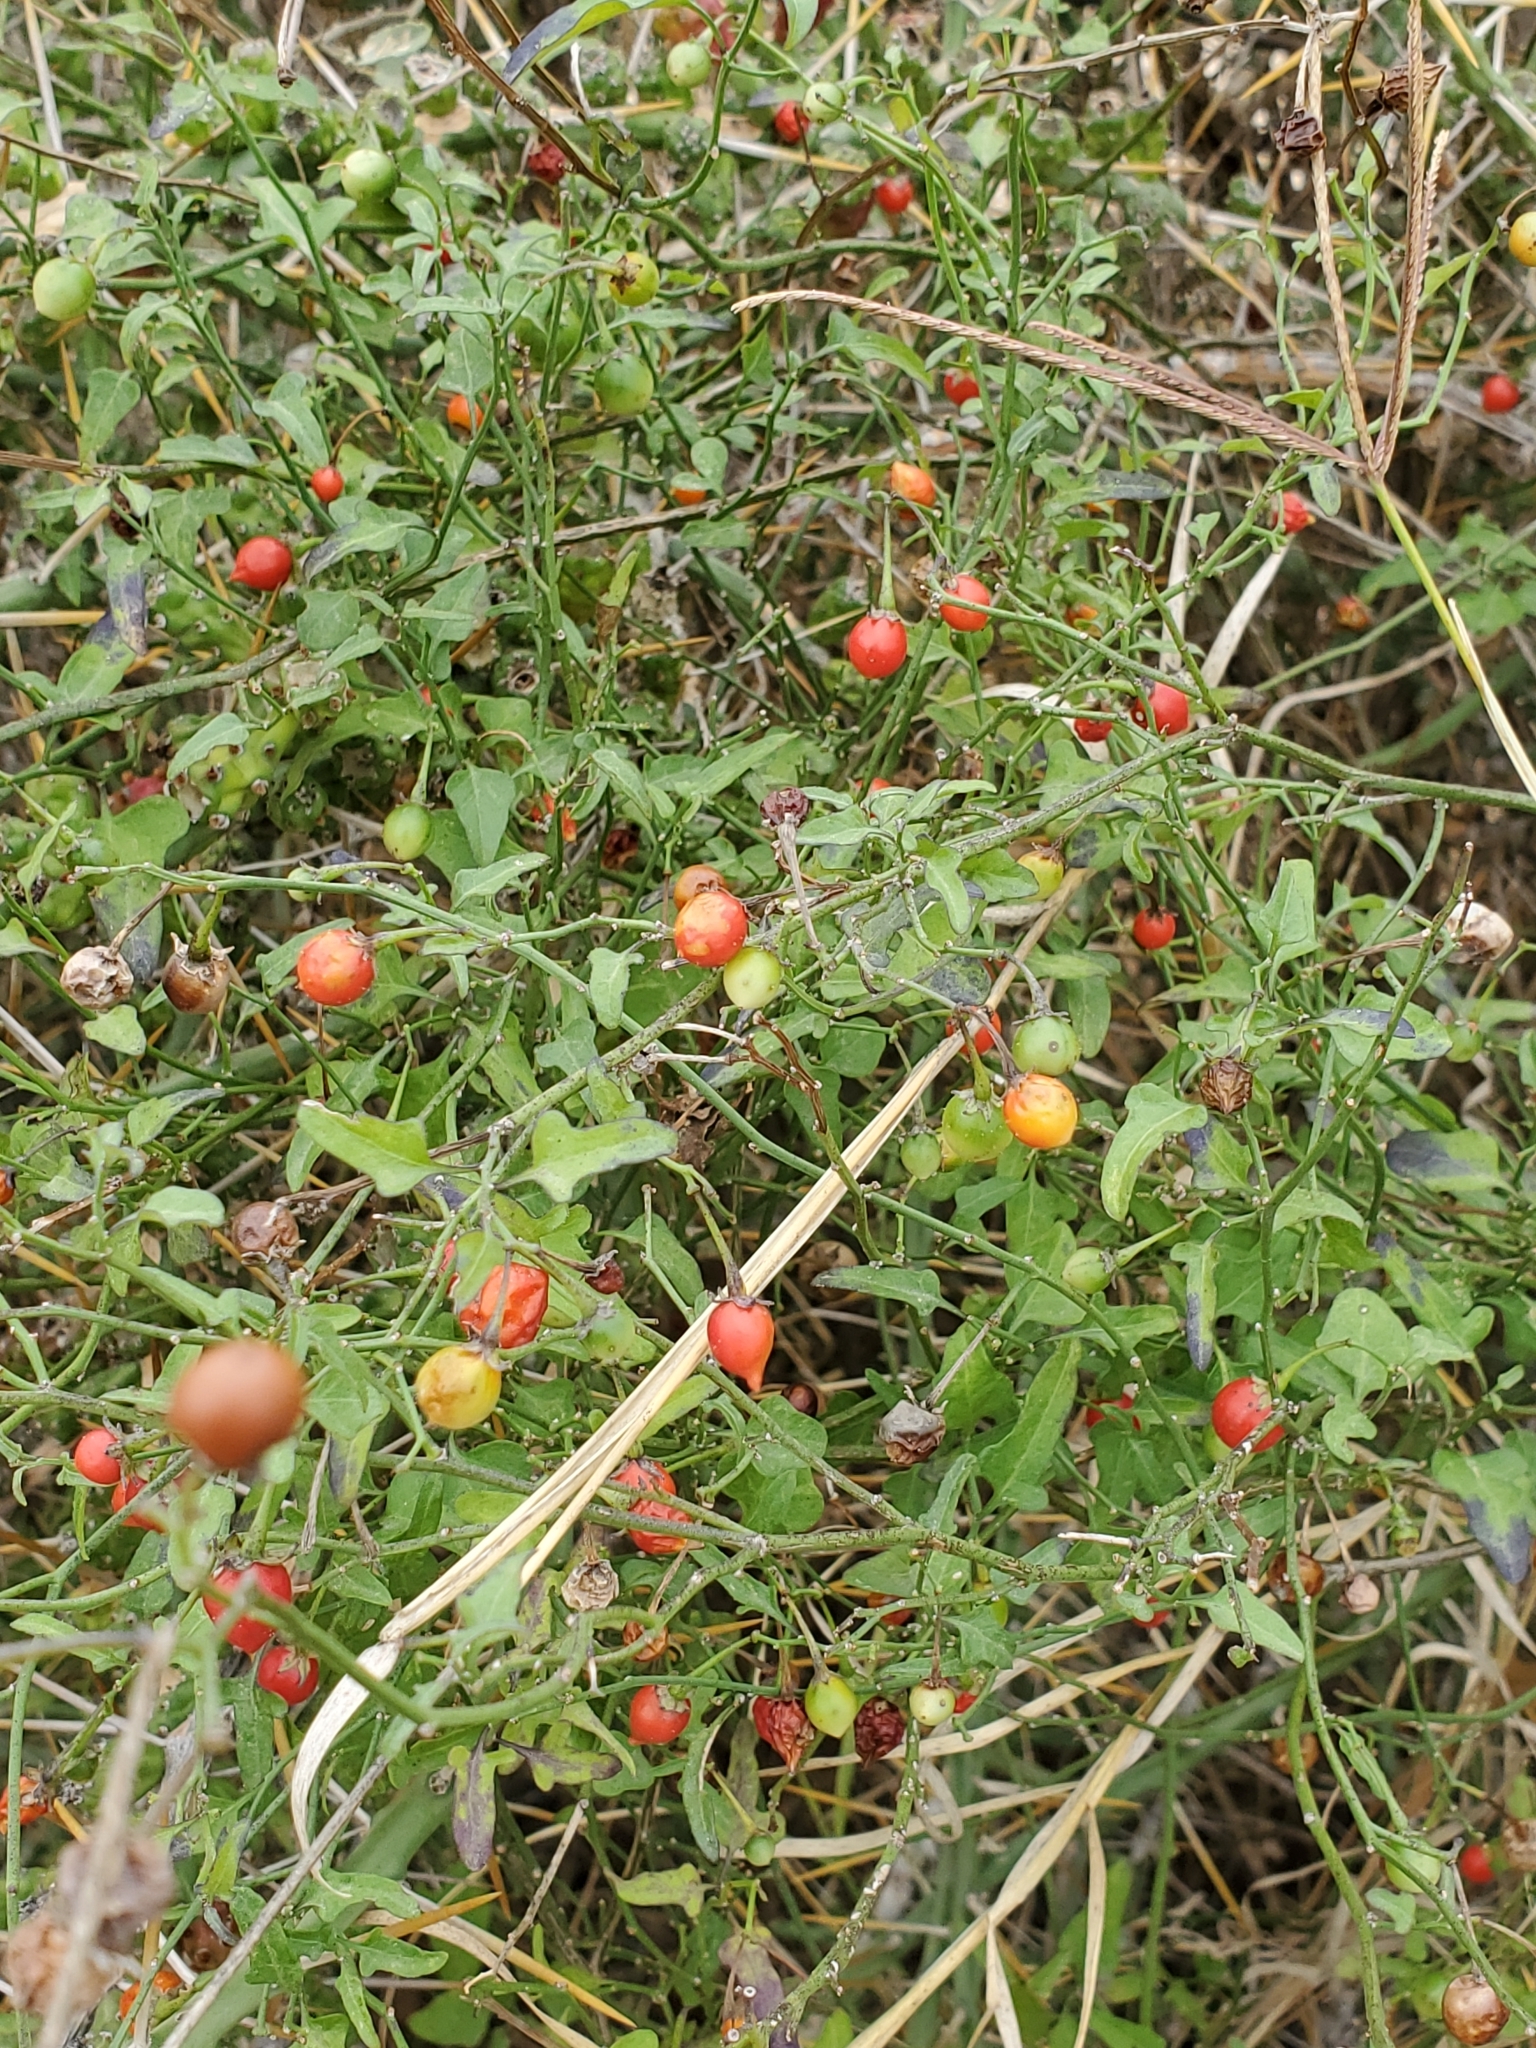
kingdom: Plantae
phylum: Tracheophyta
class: Magnoliopsida
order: Solanales
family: Solanaceae
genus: Solanum
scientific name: Solanum triquetrum
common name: Texas nightshade
